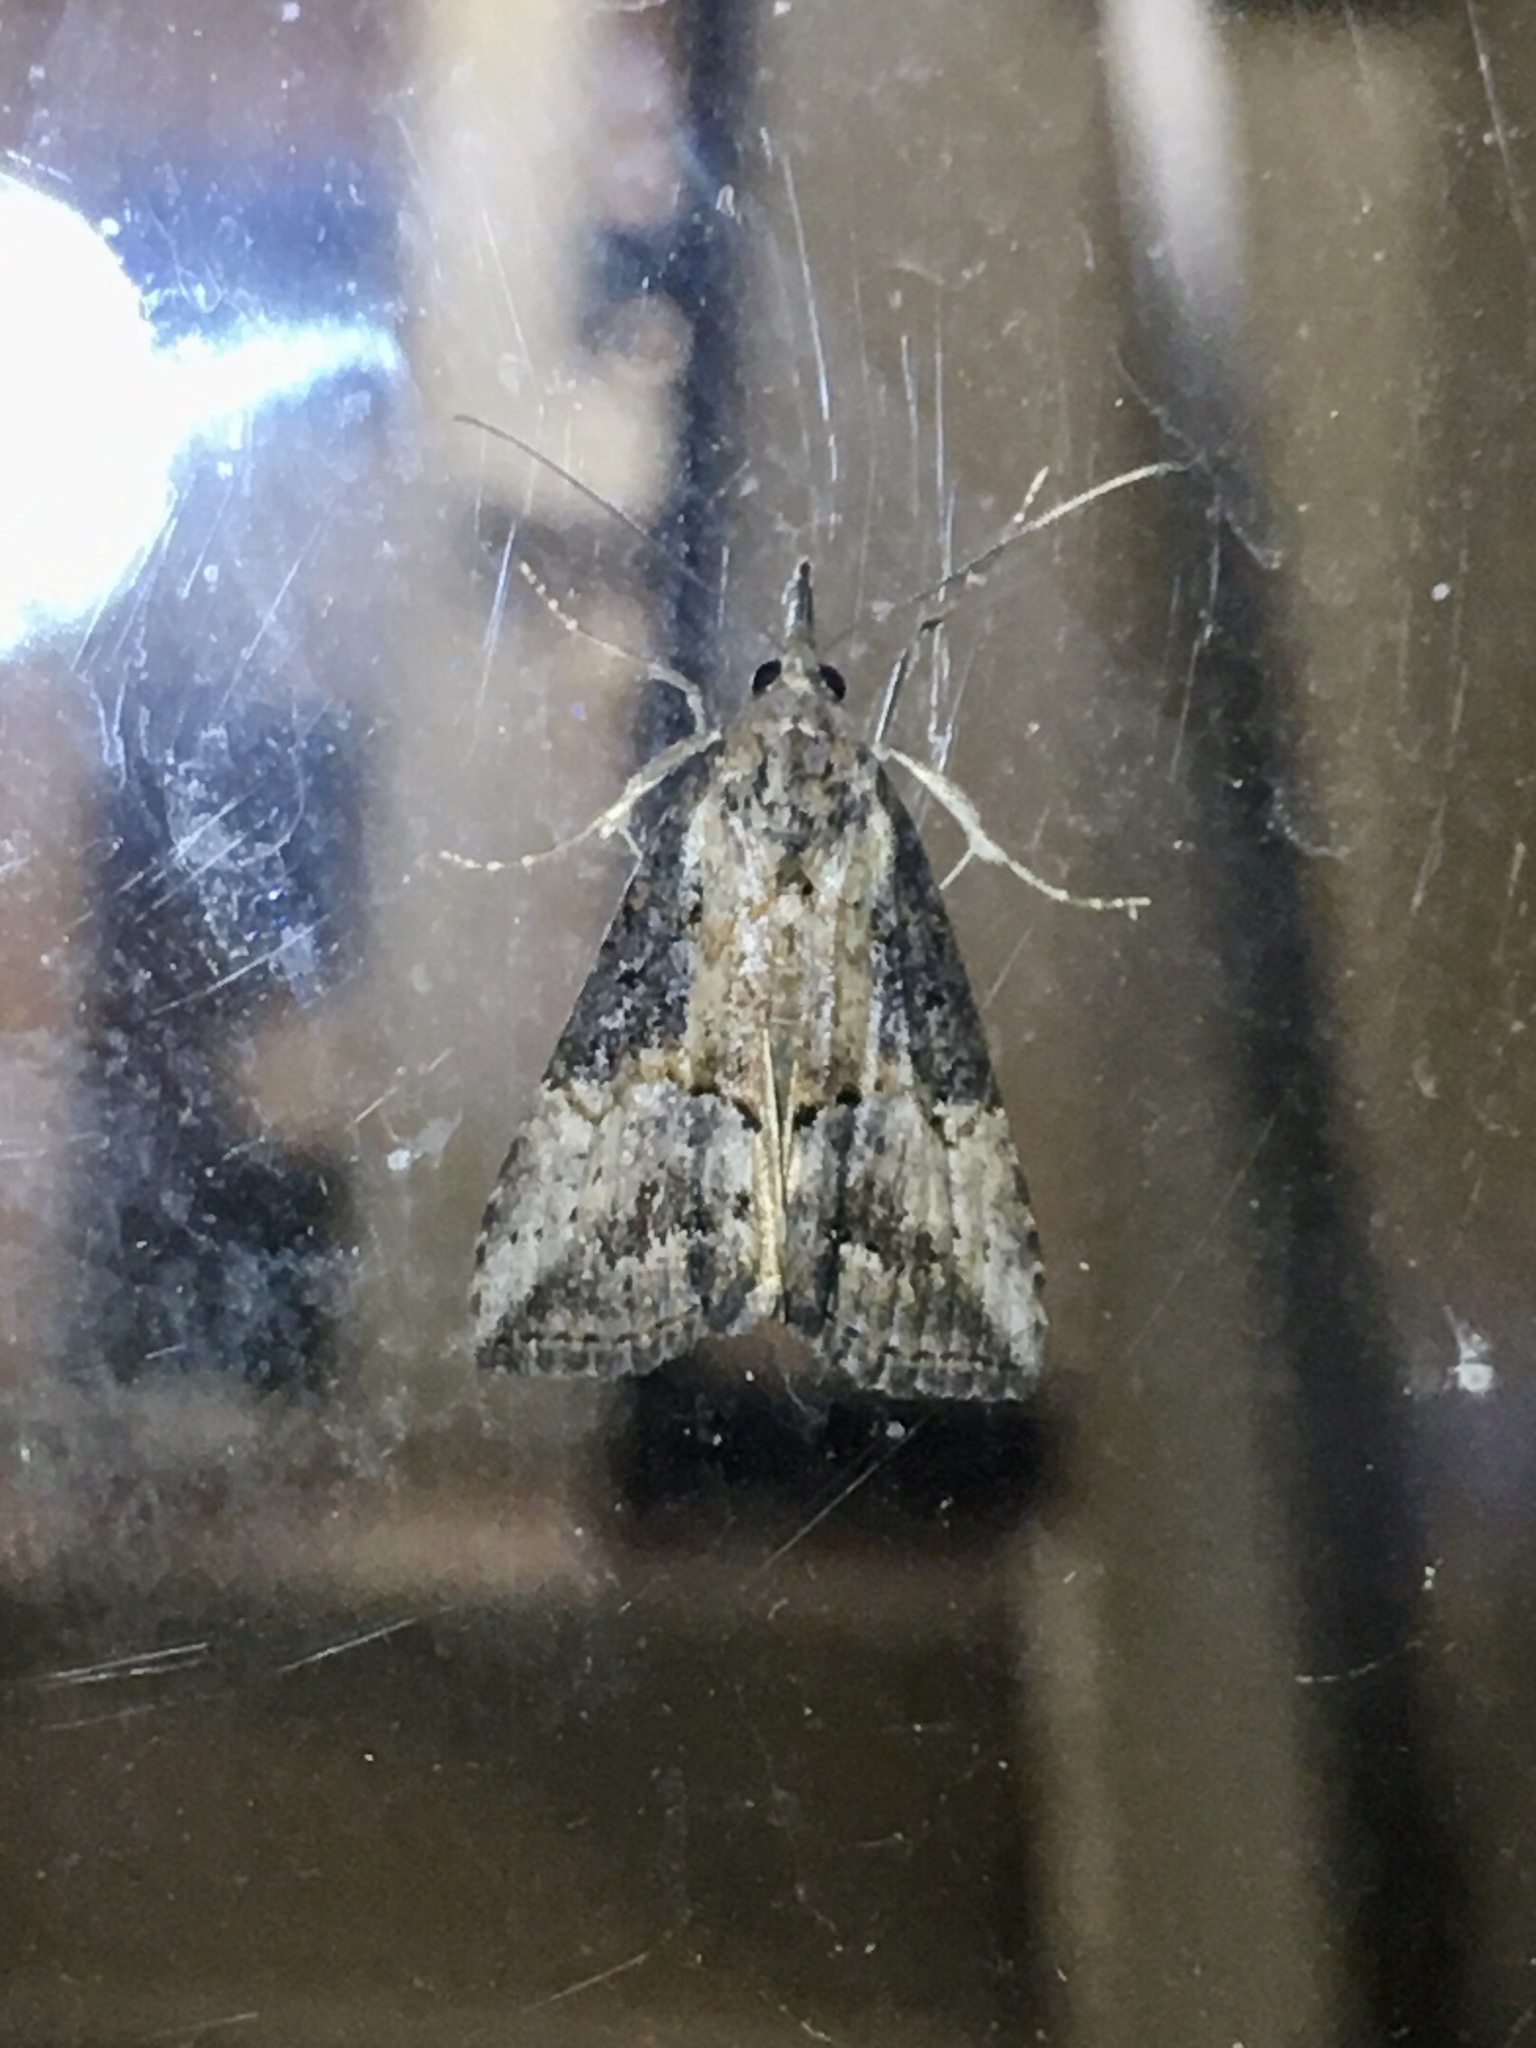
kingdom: Animalia
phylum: Arthropoda
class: Insecta
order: Lepidoptera
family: Erebidae
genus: Hypena
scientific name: Hypena scabra
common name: Green cloverworm
